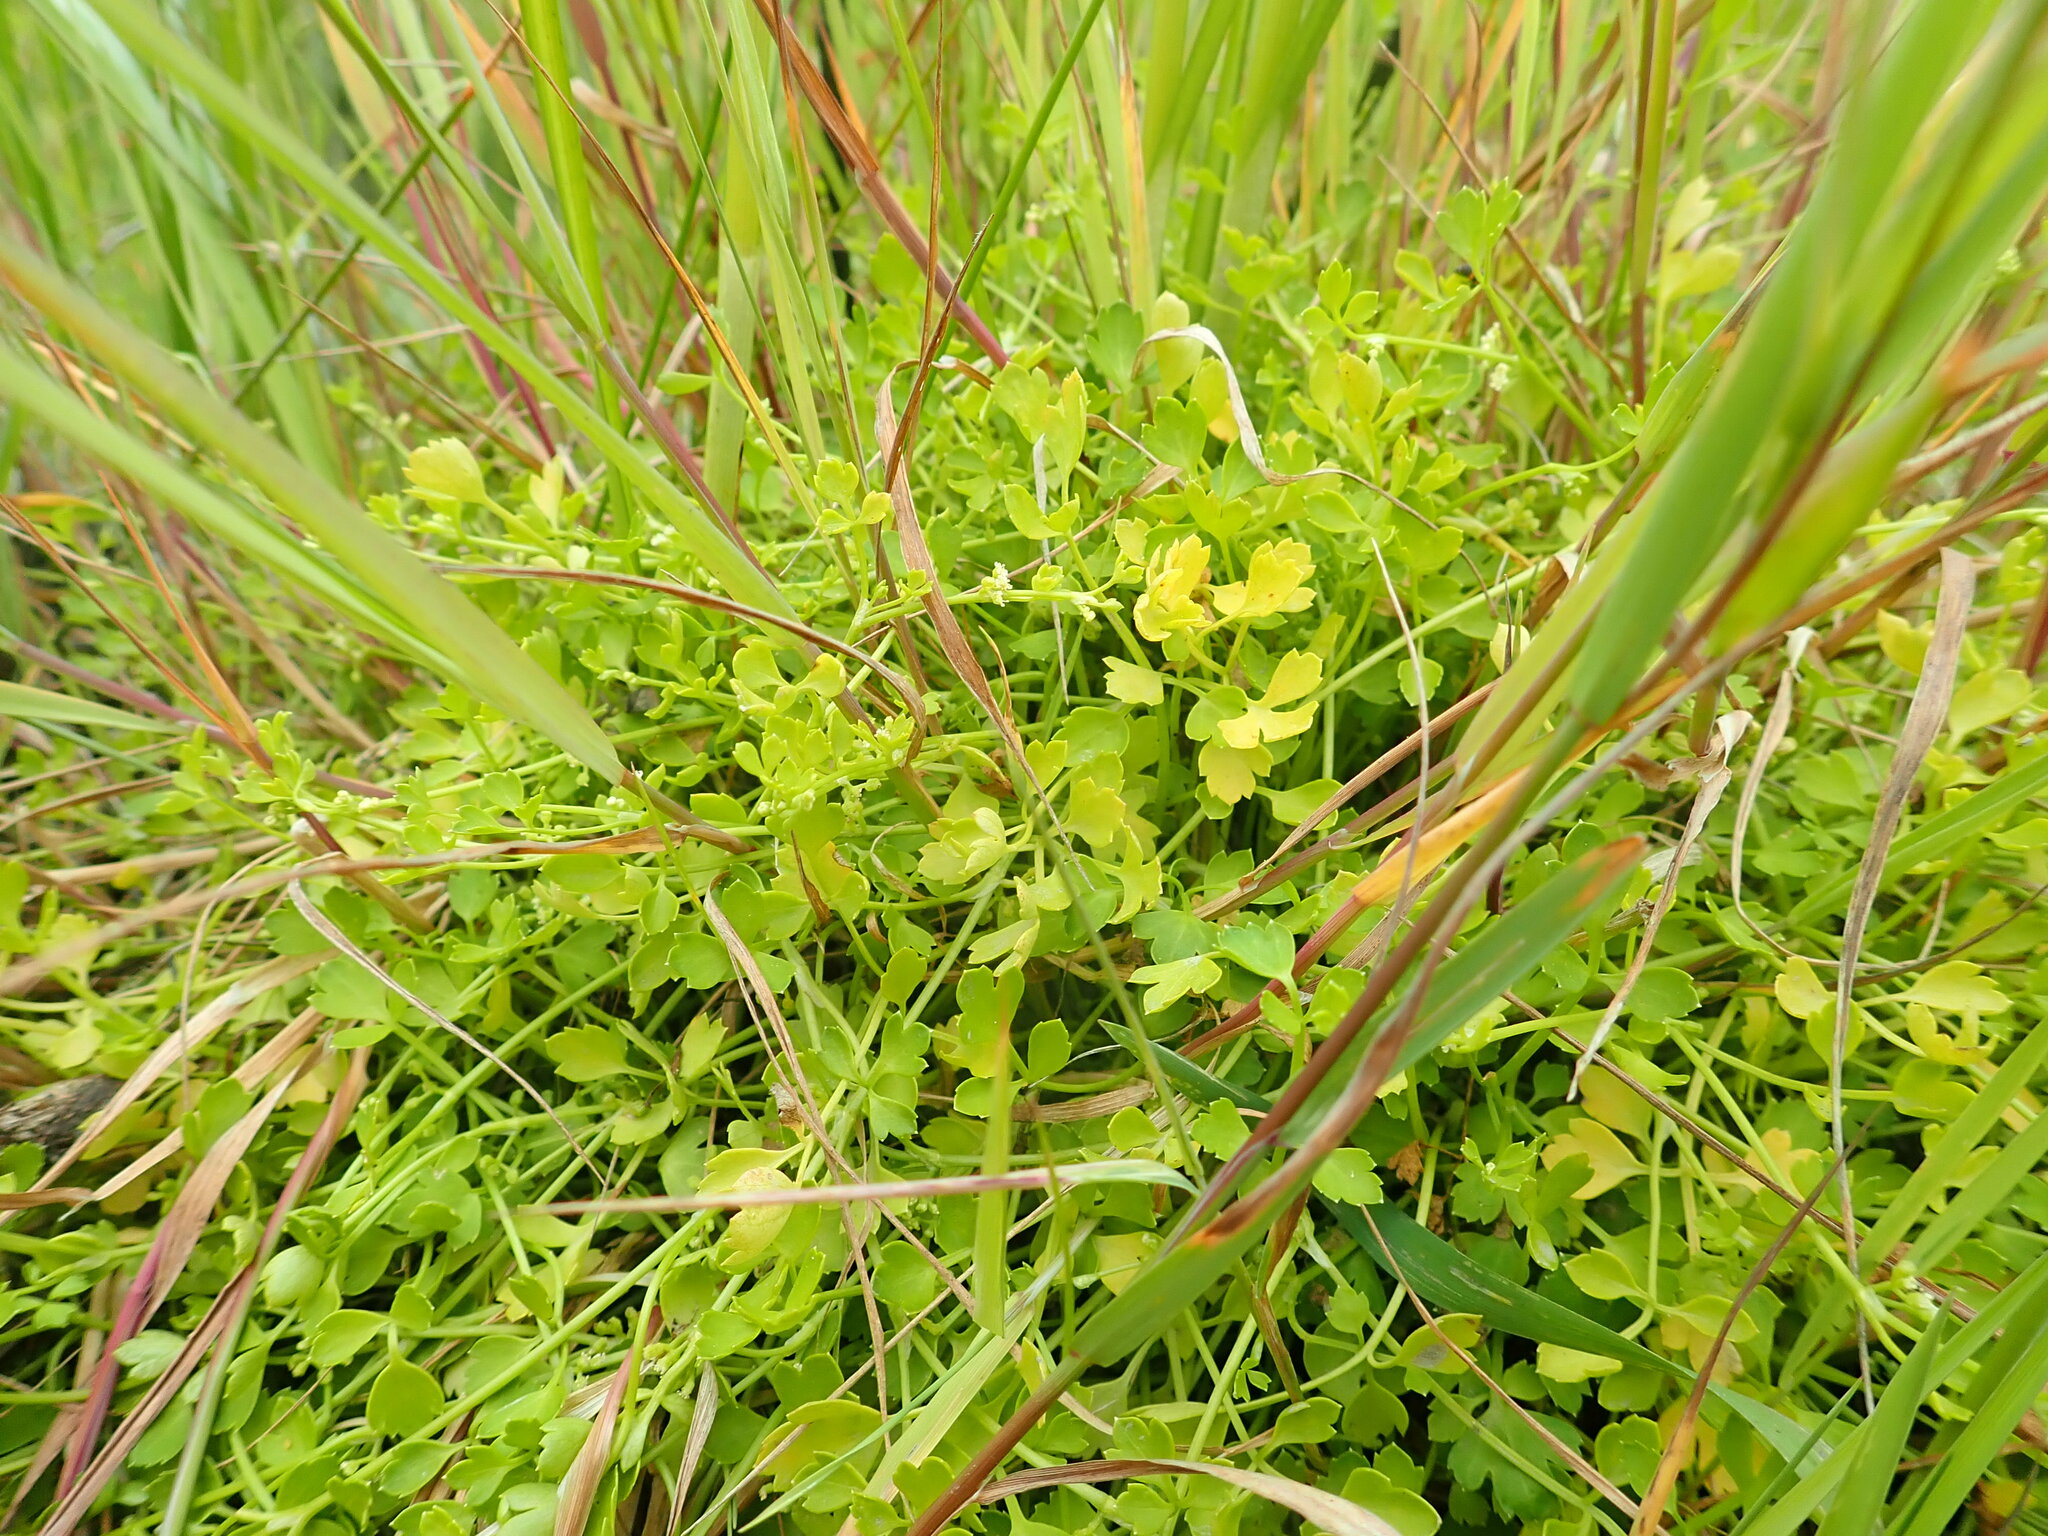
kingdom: Plantae
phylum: Tracheophyta
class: Magnoliopsida
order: Apiales
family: Apiaceae
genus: Apium
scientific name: Apium prostratum
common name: Prostrate marshwort
